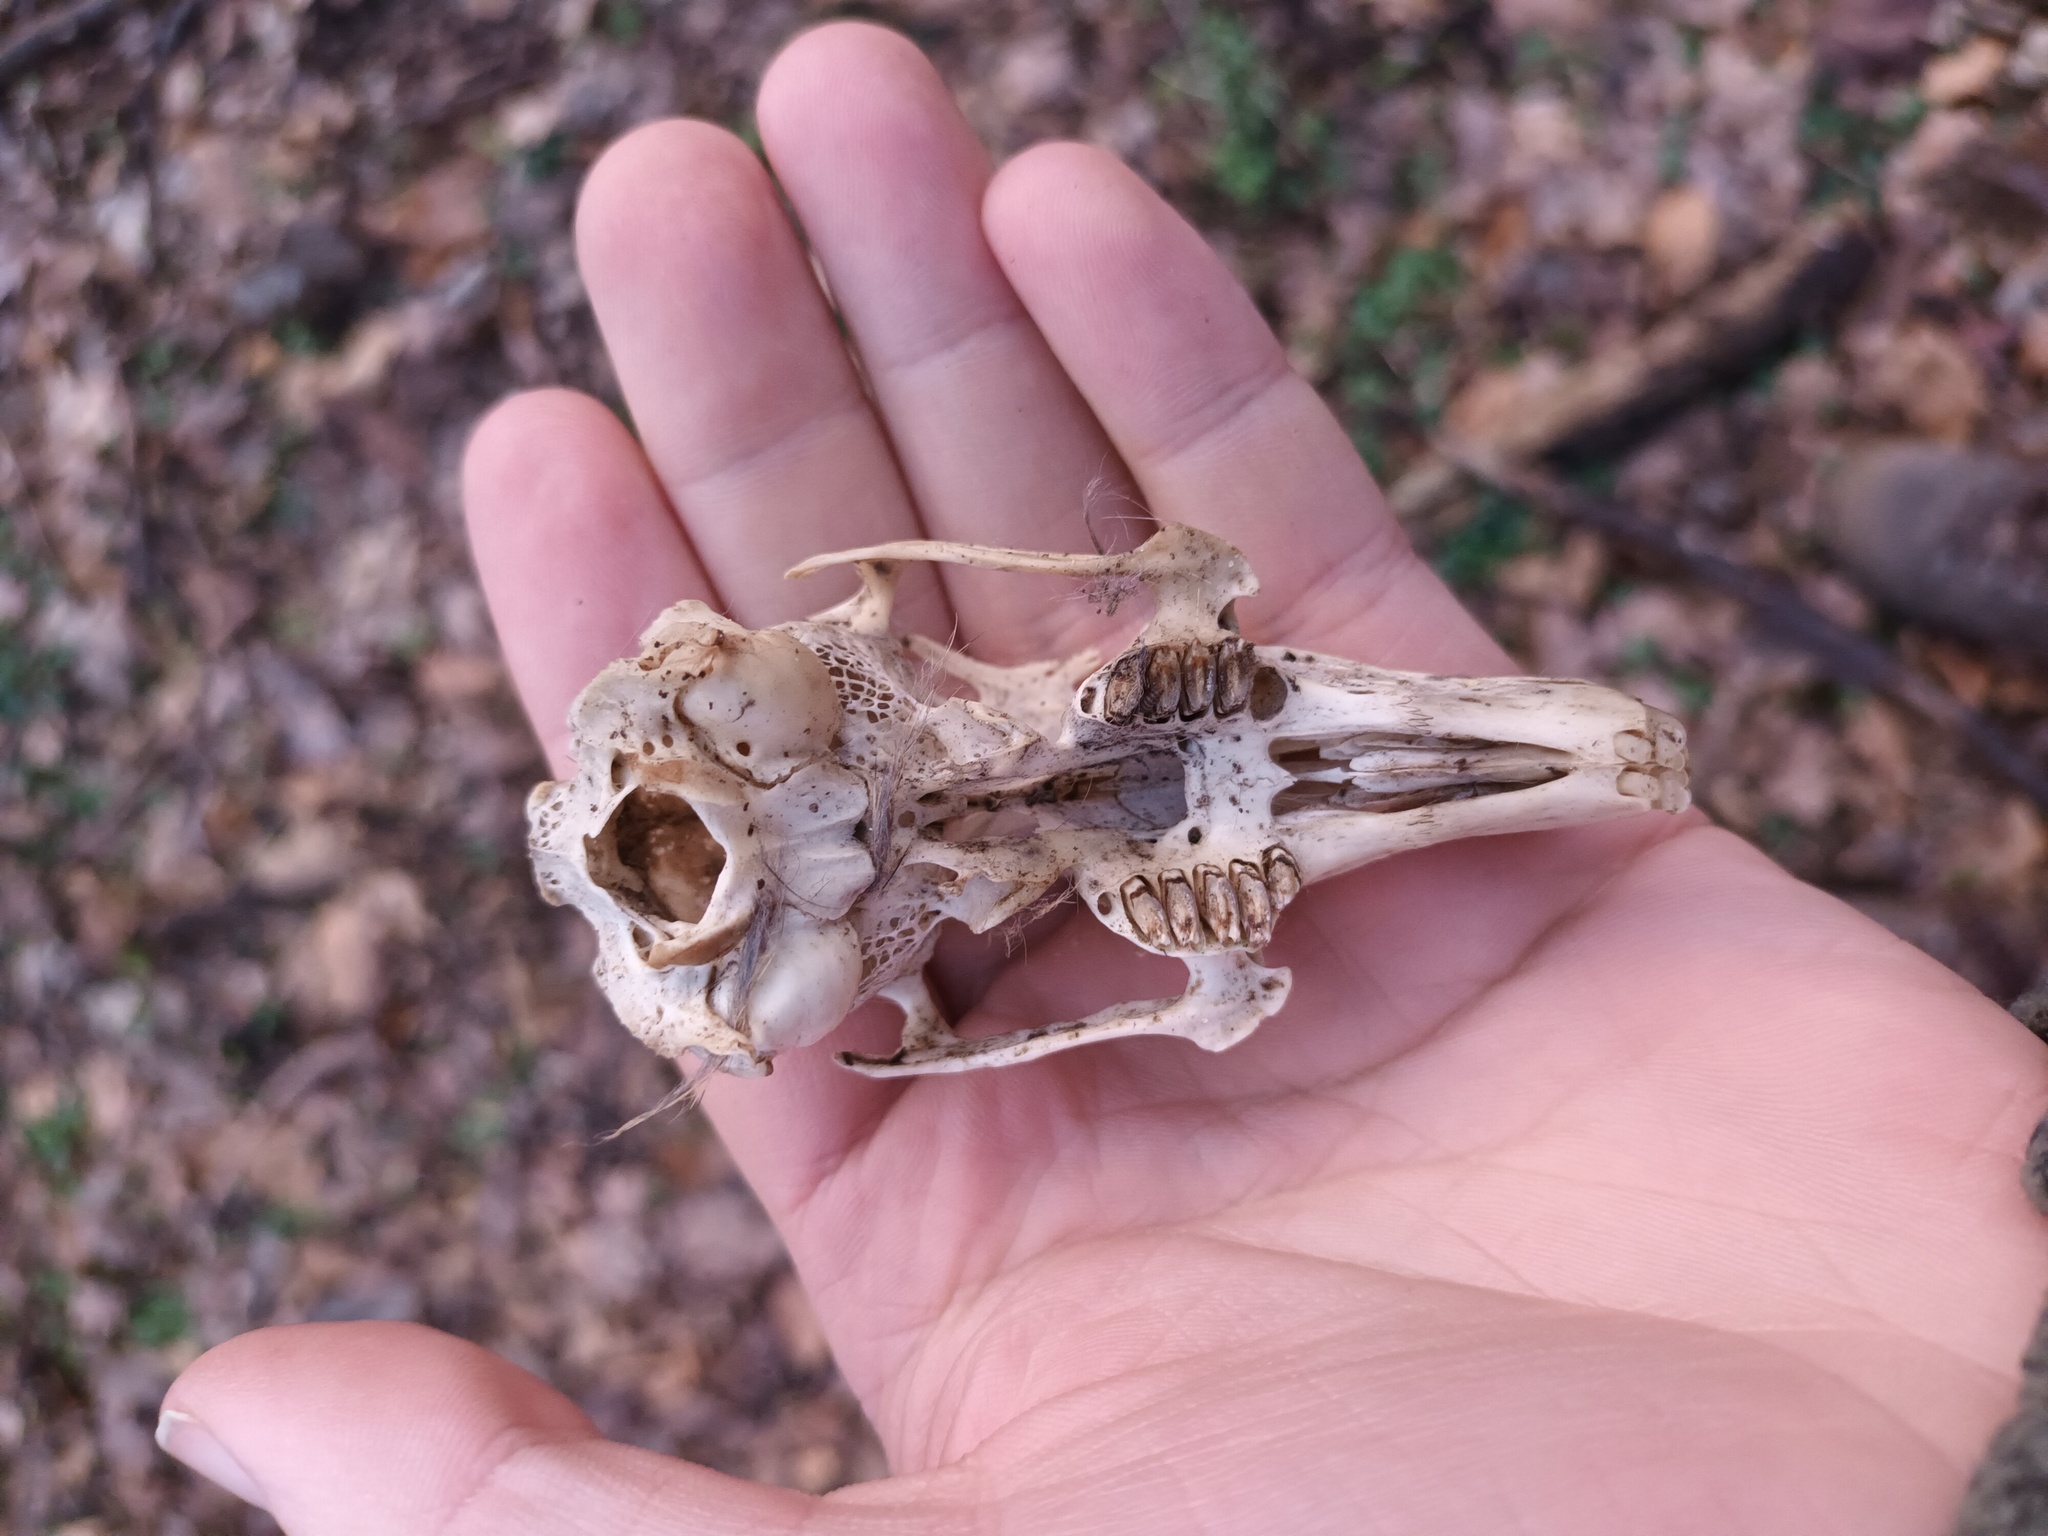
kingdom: Animalia
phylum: Chordata
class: Mammalia
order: Lagomorpha
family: Leporidae
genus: Oryctolagus
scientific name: Oryctolagus cuniculus
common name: European rabbit
